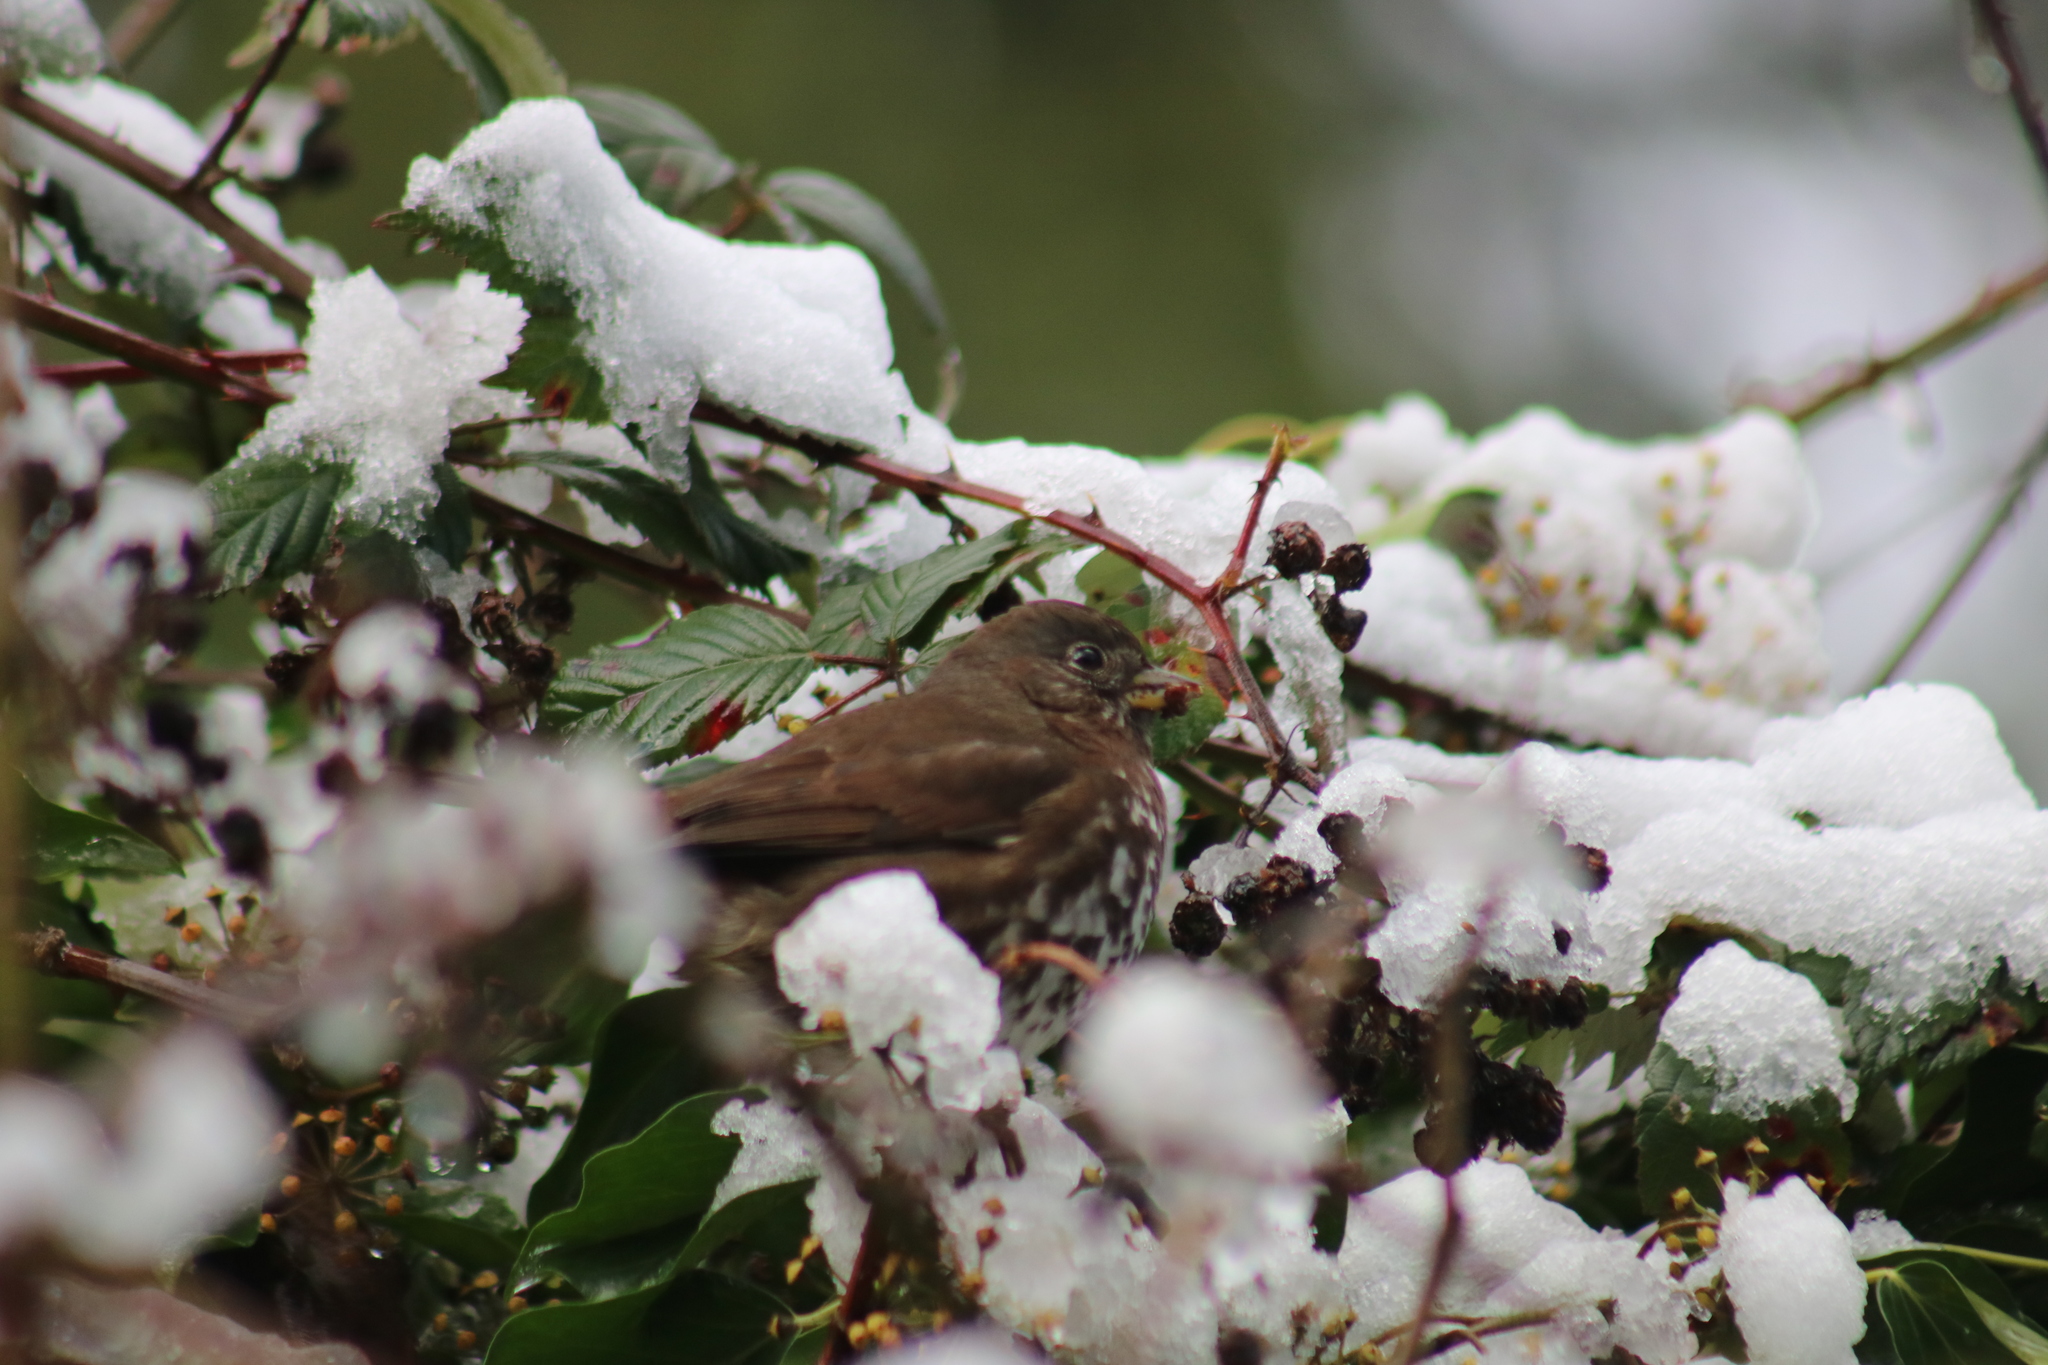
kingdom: Animalia
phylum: Chordata
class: Aves
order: Passeriformes
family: Passerellidae
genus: Passerella
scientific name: Passerella iliaca
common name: Fox sparrow
